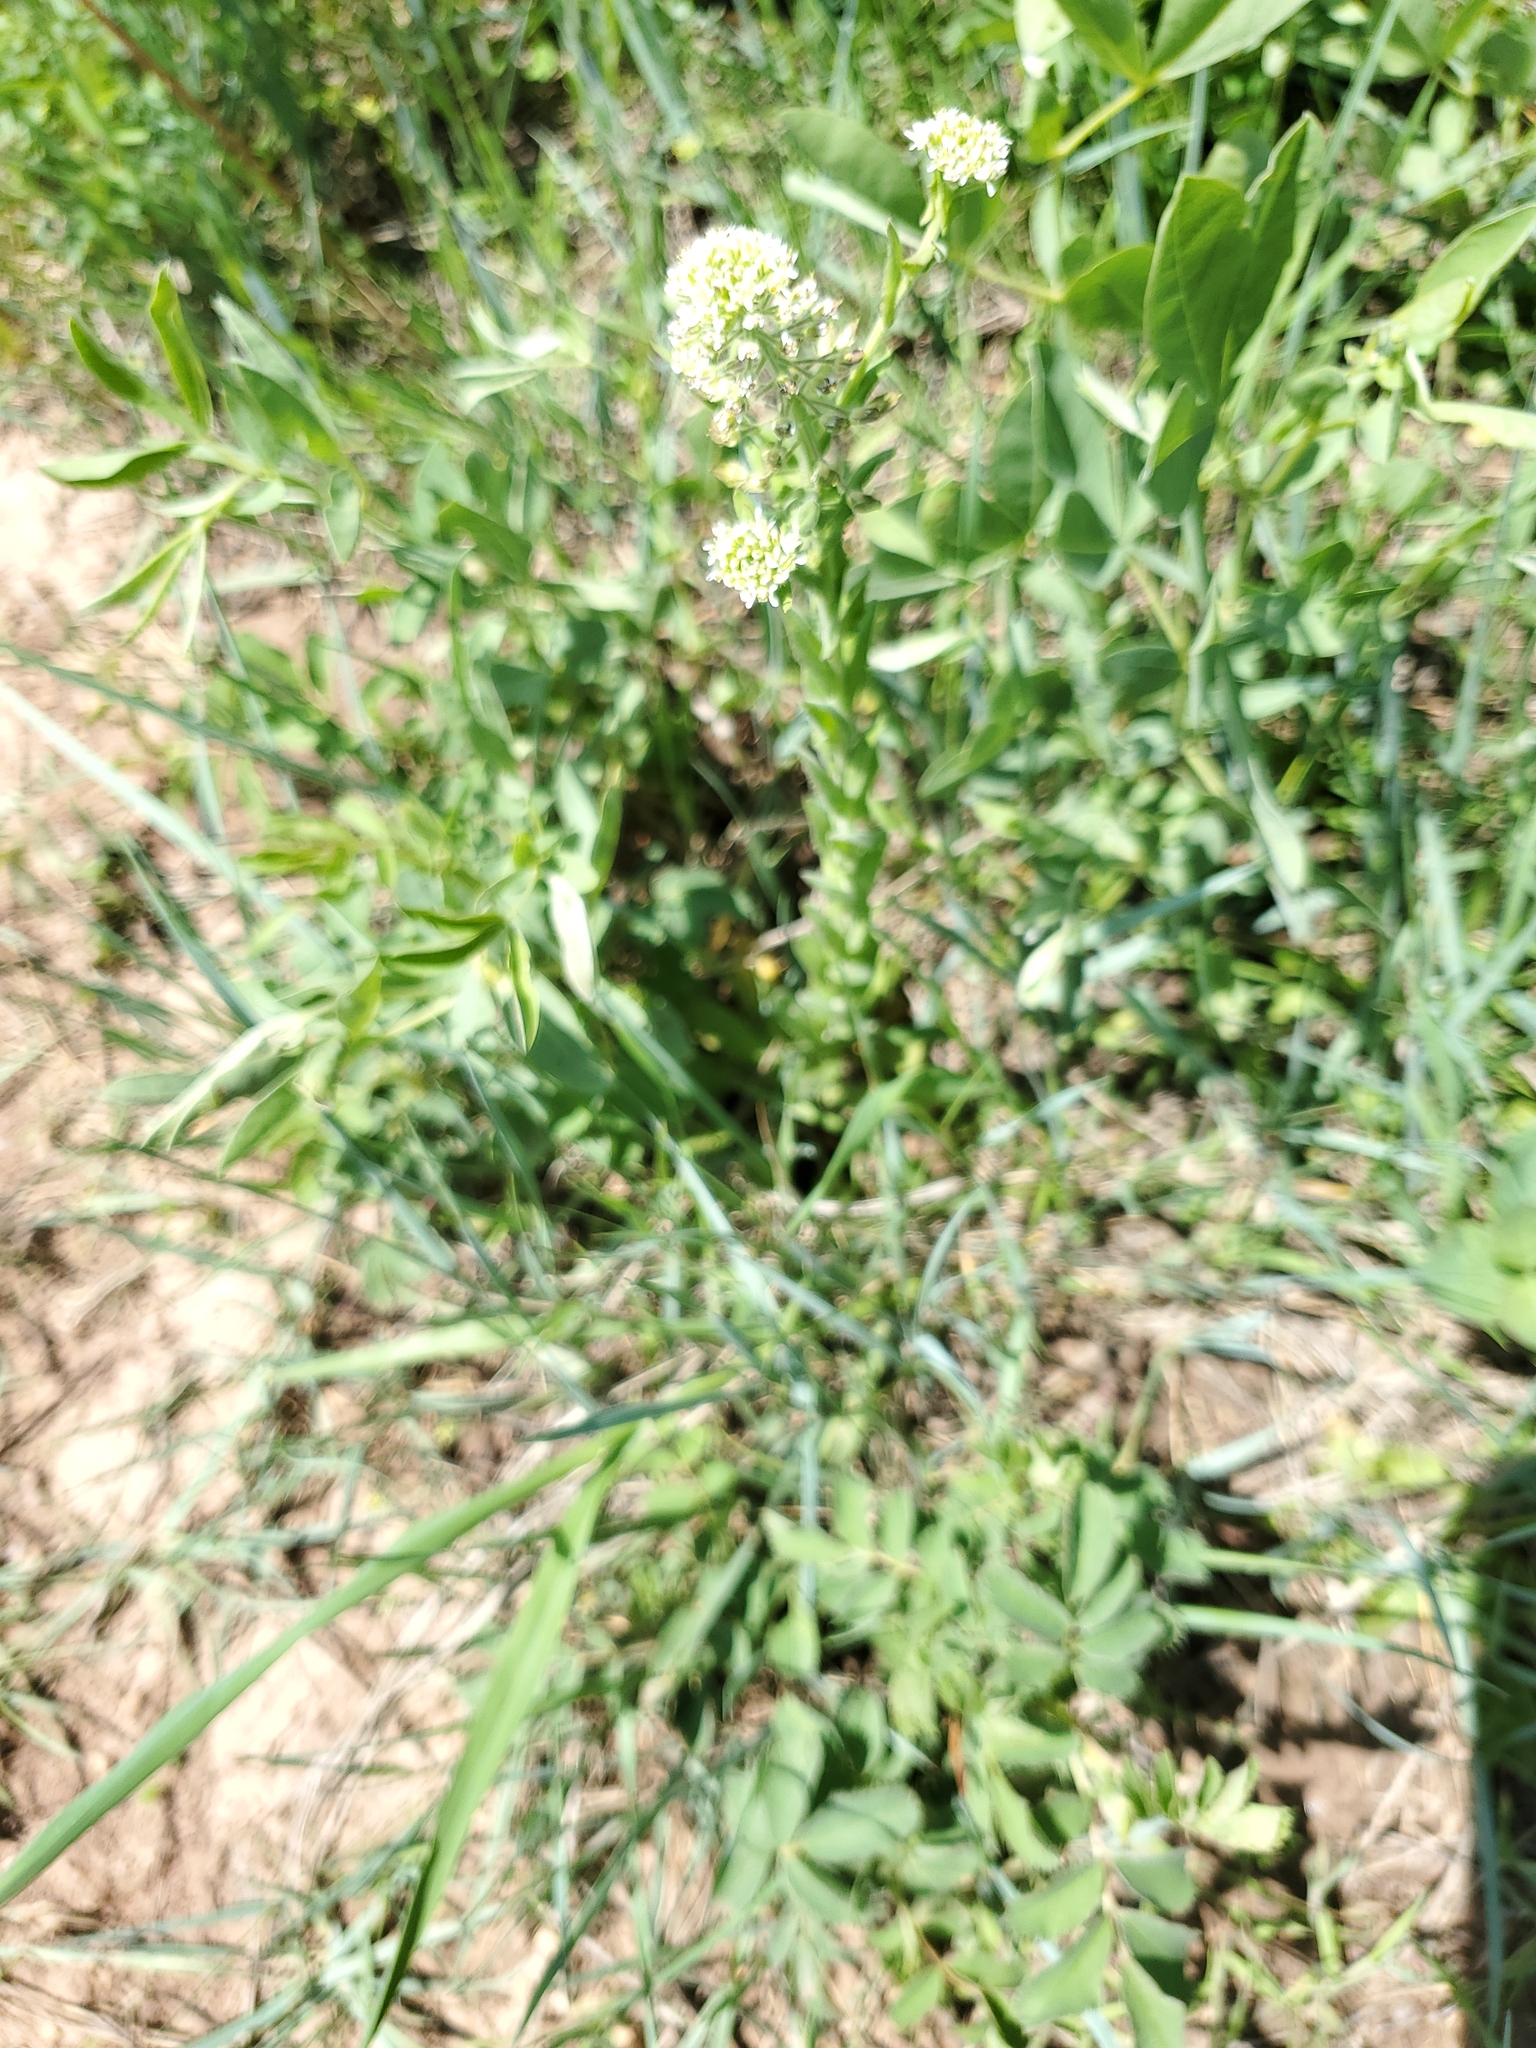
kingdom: Plantae
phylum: Tracheophyta
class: Magnoliopsida
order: Brassicales
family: Brassicaceae
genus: Lepidium
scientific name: Lepidium campestre
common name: Field pepperwort
